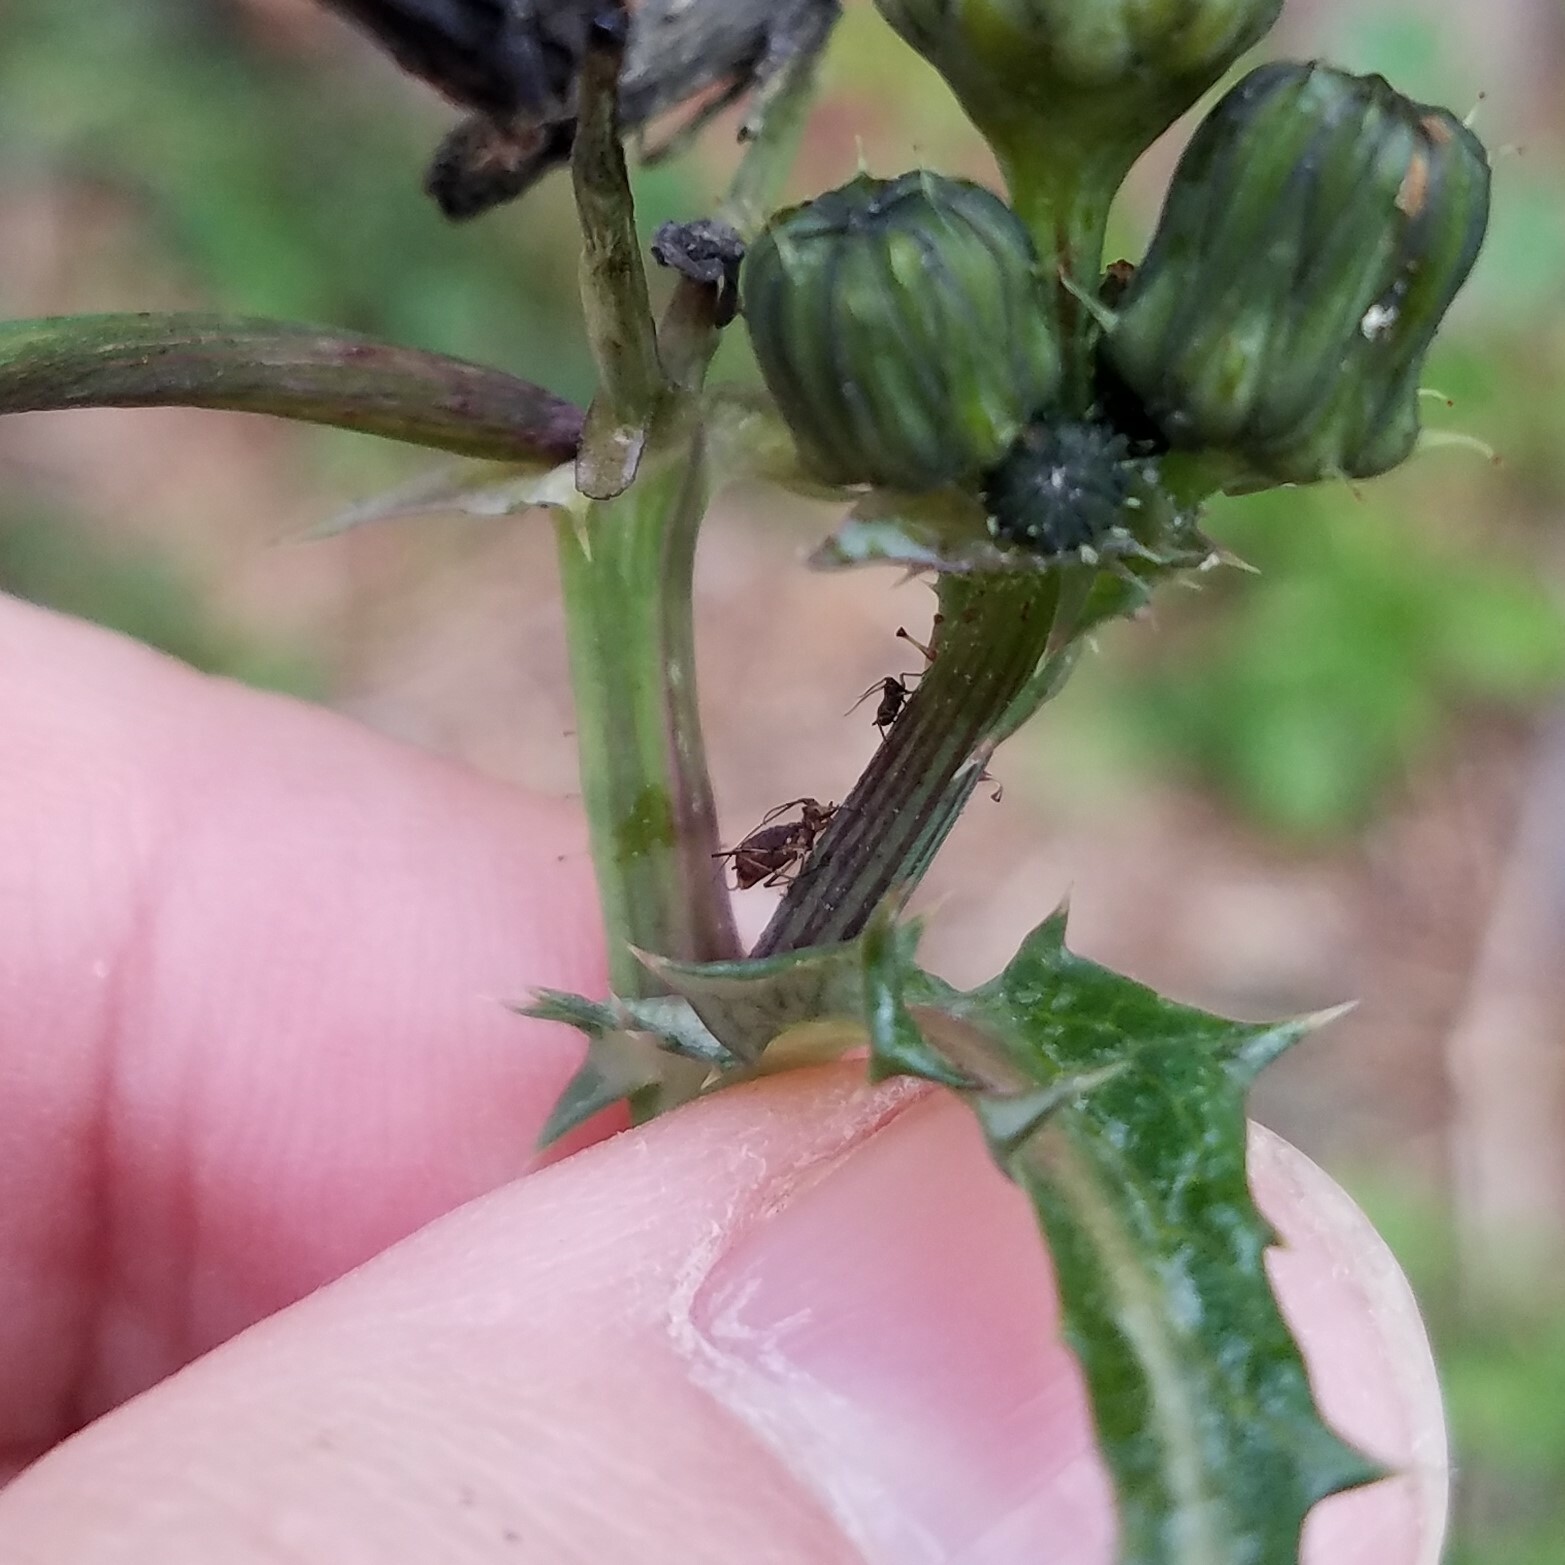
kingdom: Animalia
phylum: Arthropoda
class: Insecta
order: Hemiptera
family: Aphididae
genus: Uroleucon
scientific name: Uroleucon
